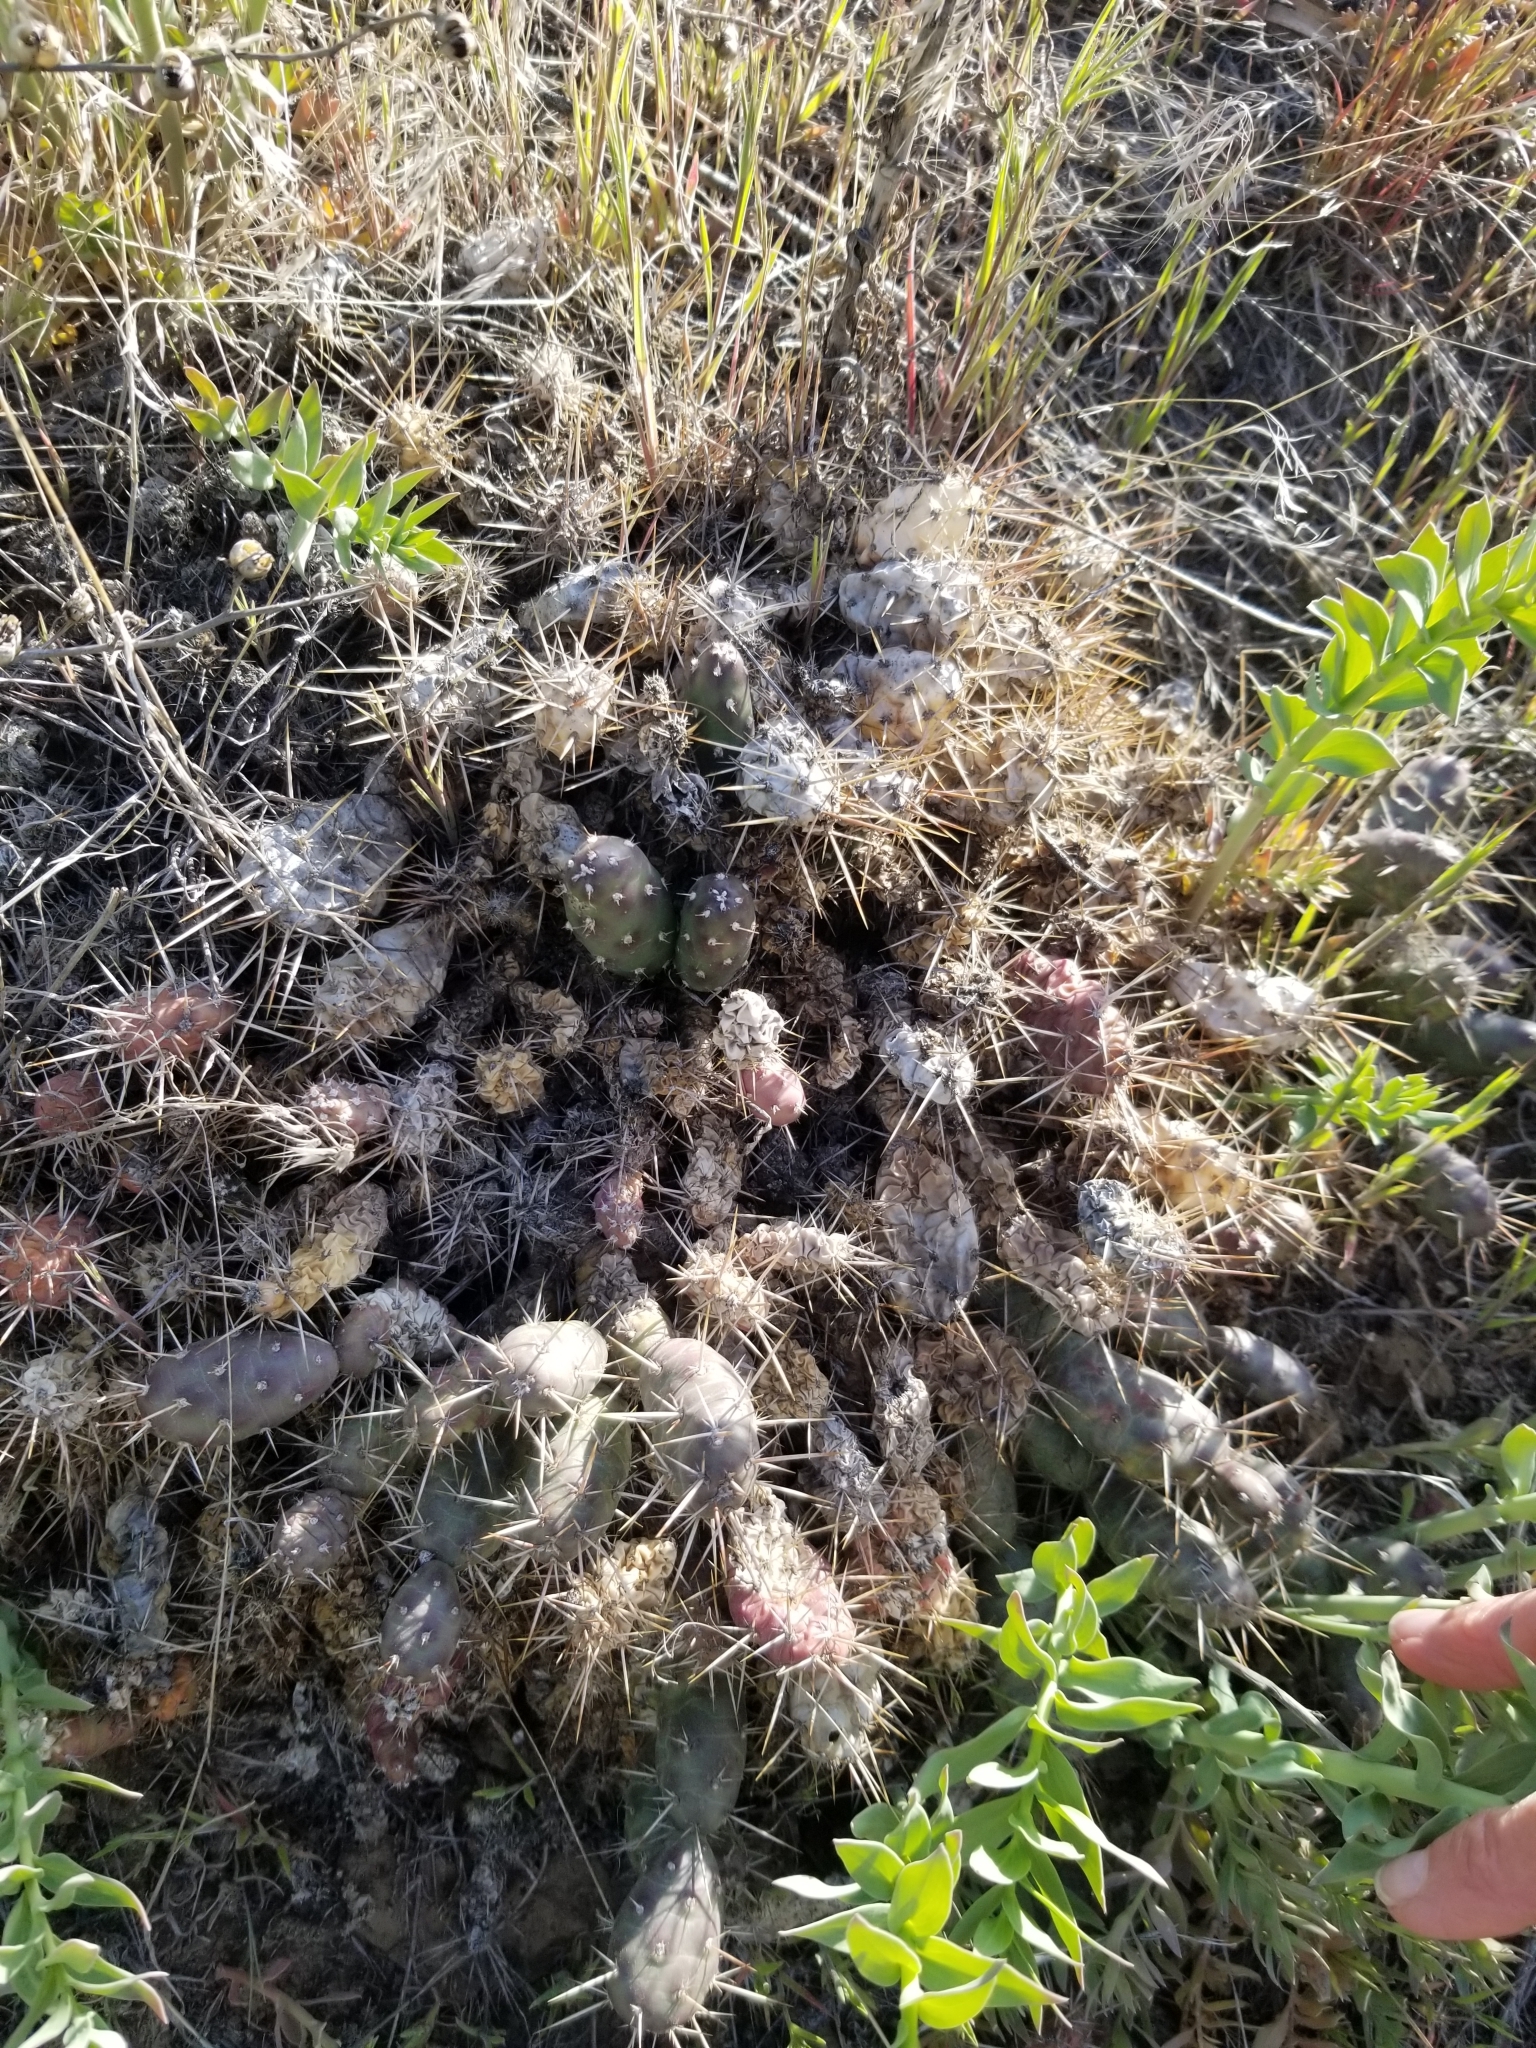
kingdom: Plantae
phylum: Tracheophyta
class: Magnoliopsida
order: Caryophyllales
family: Cactaceae
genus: Opuntia
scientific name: Opuntia fragilis
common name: Brittle cactus
